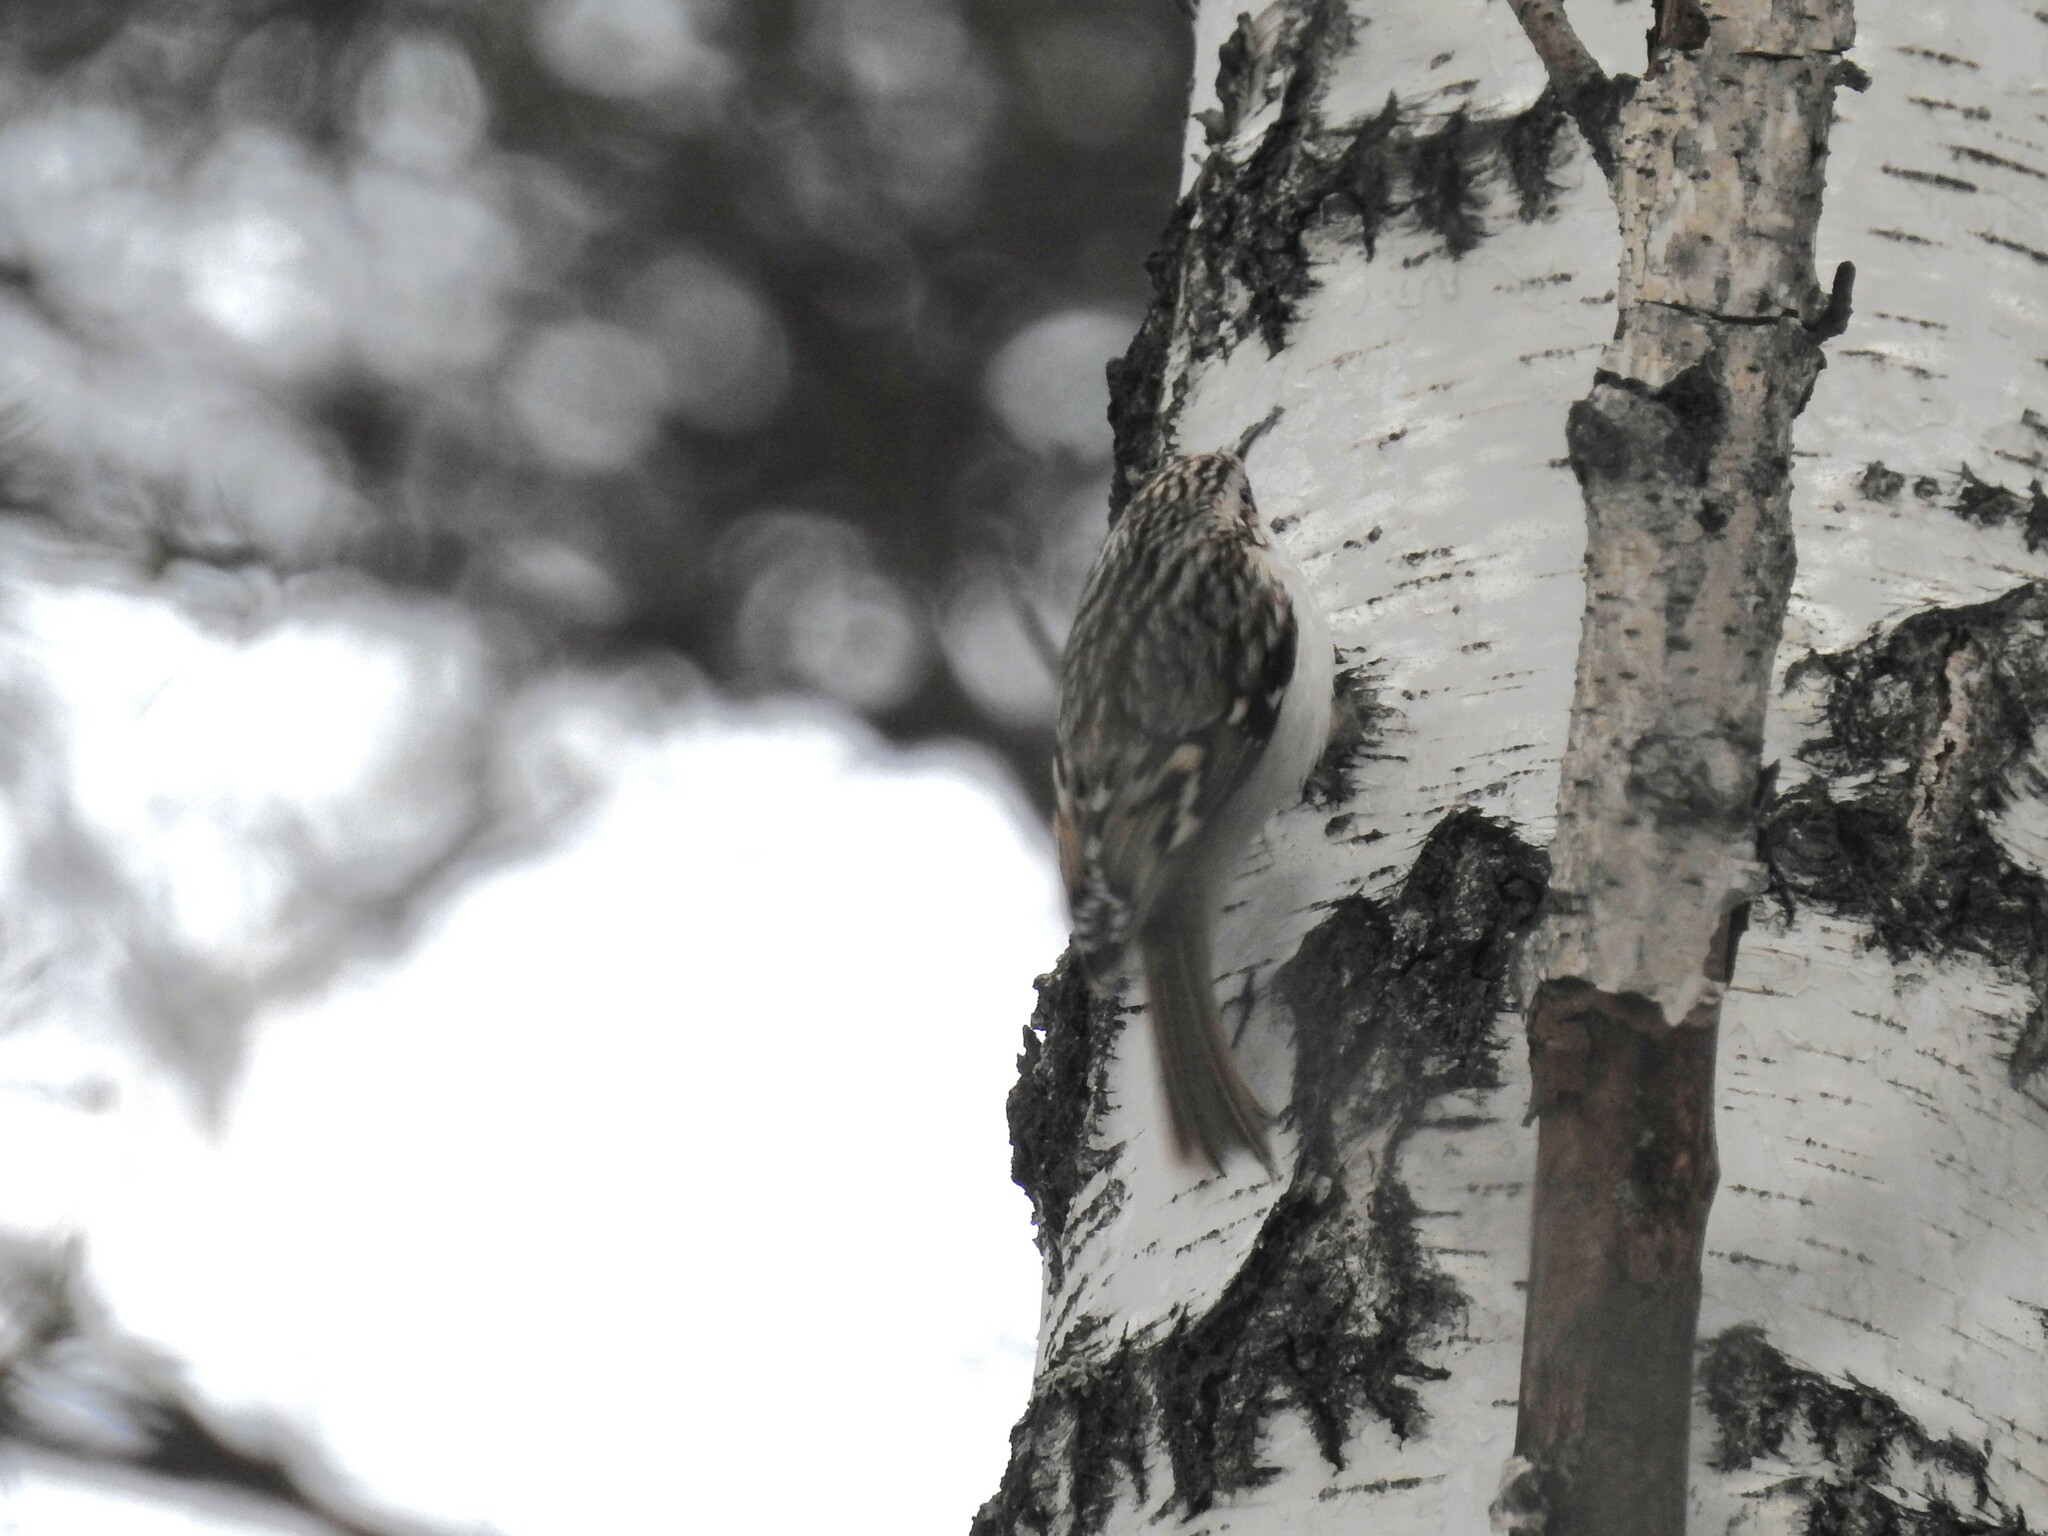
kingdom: Animalia
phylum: Chordata
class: Aves
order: Passeriformes
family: Certhiidae
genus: Certhia
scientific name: Certhia familiaris
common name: Eurasian treecreeper
